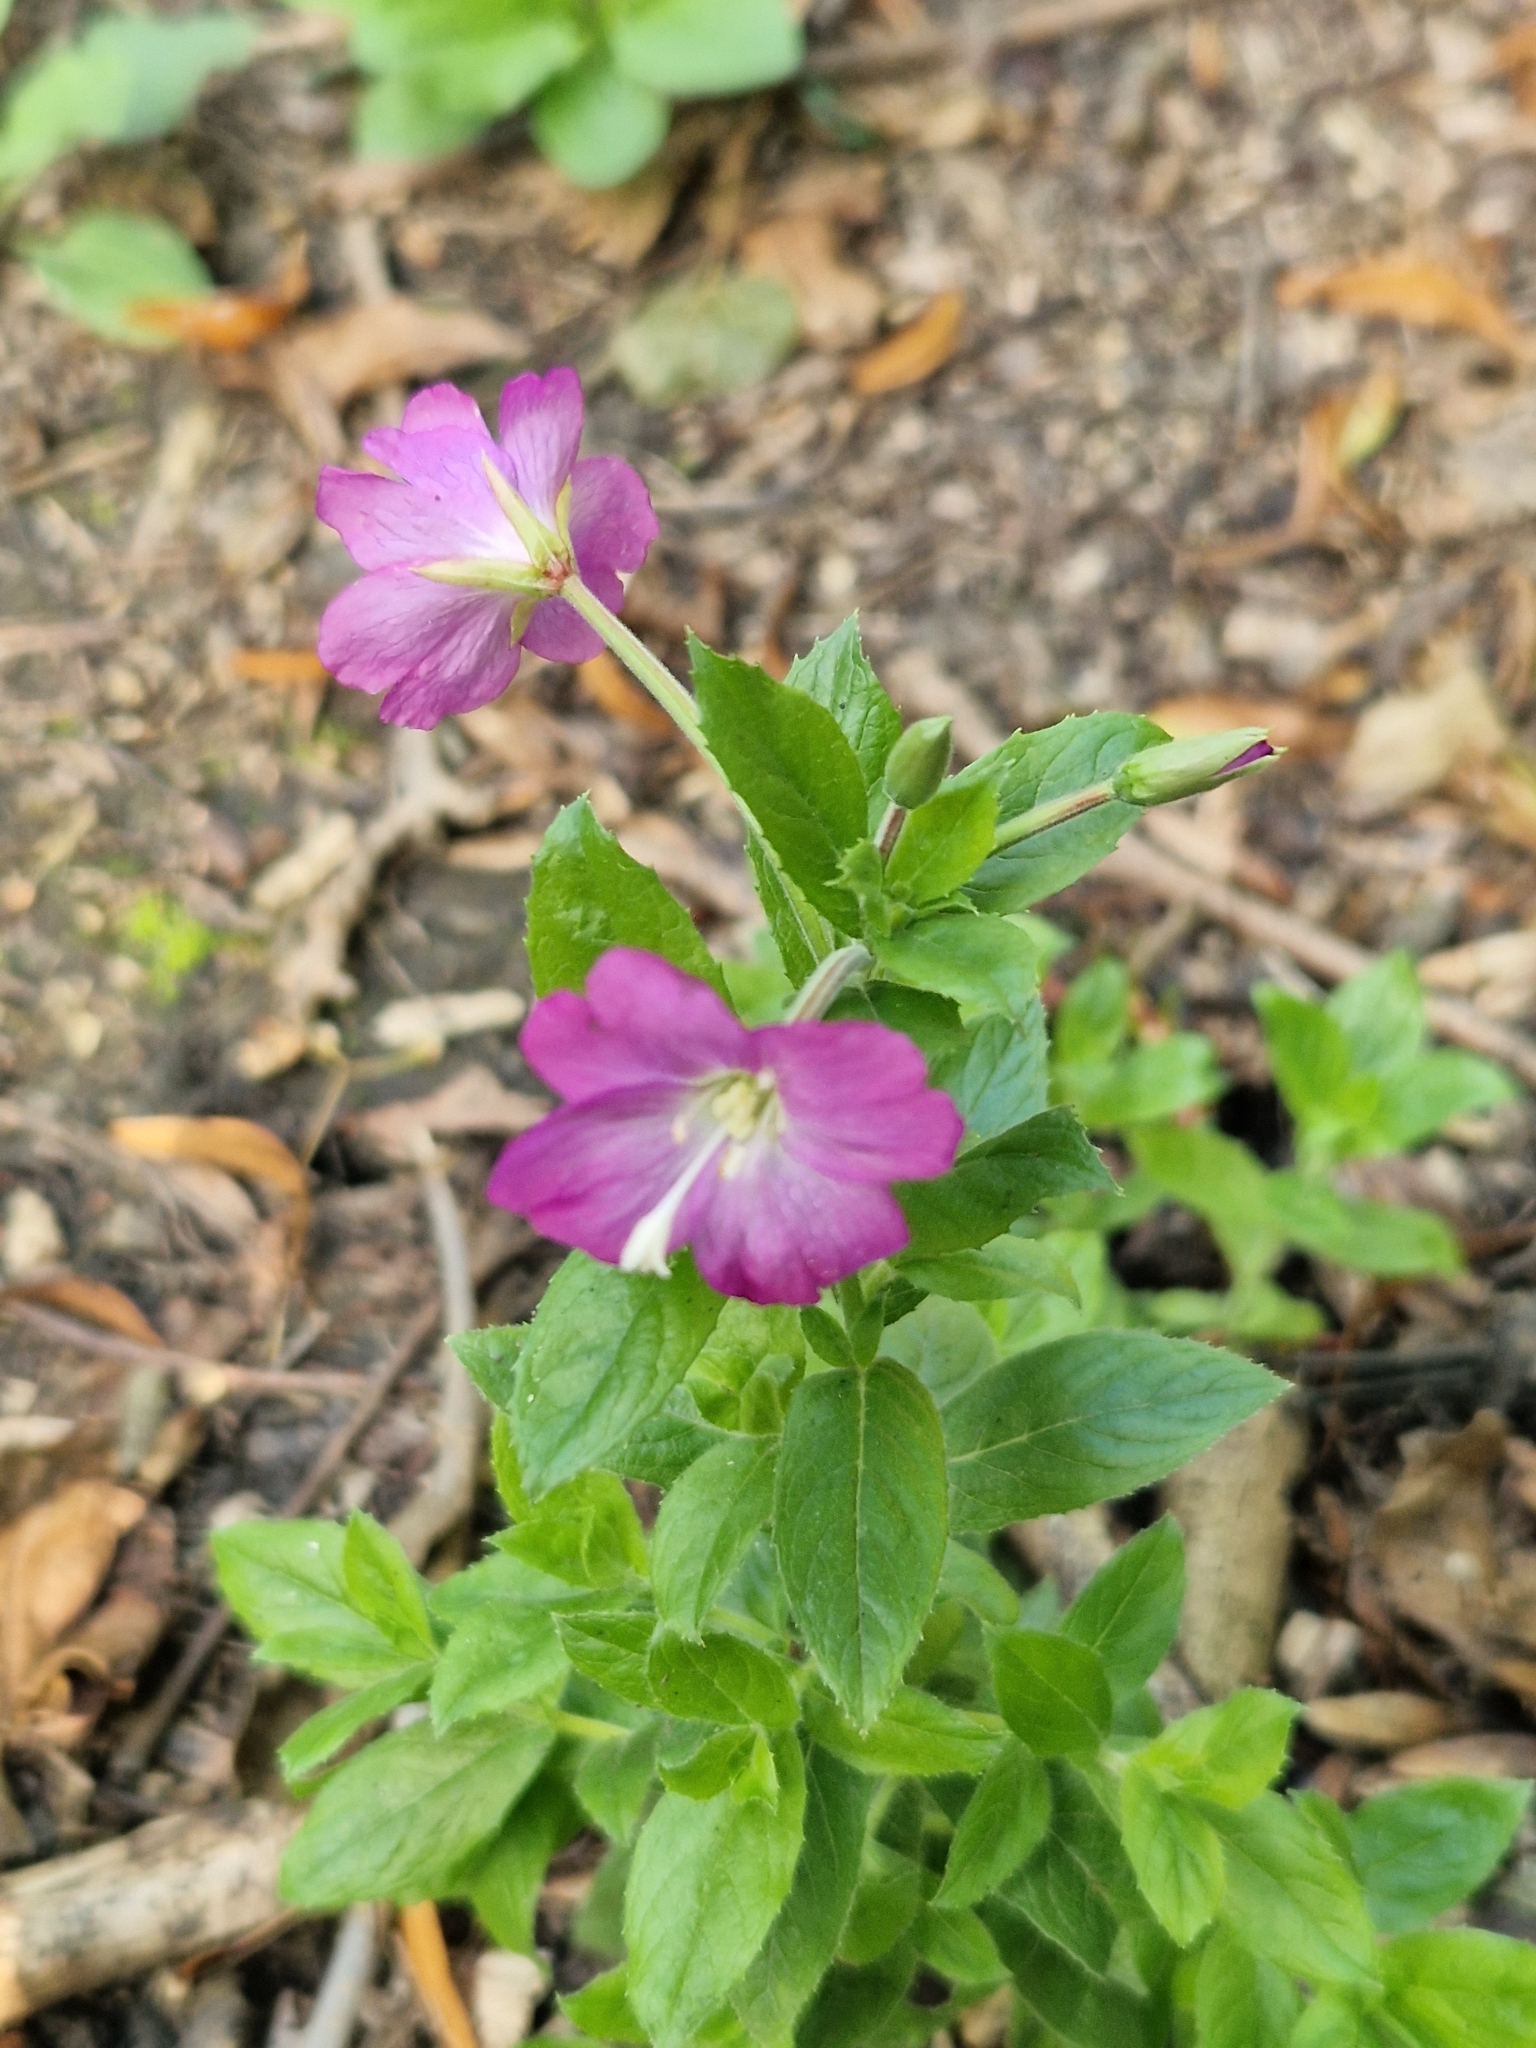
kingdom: Plantae
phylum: Tracheophyta
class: Magnoliopsida
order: Myrtales
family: Onagraceae
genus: Epilobium
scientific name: Epilobium hirsutum
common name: Great willowherb
